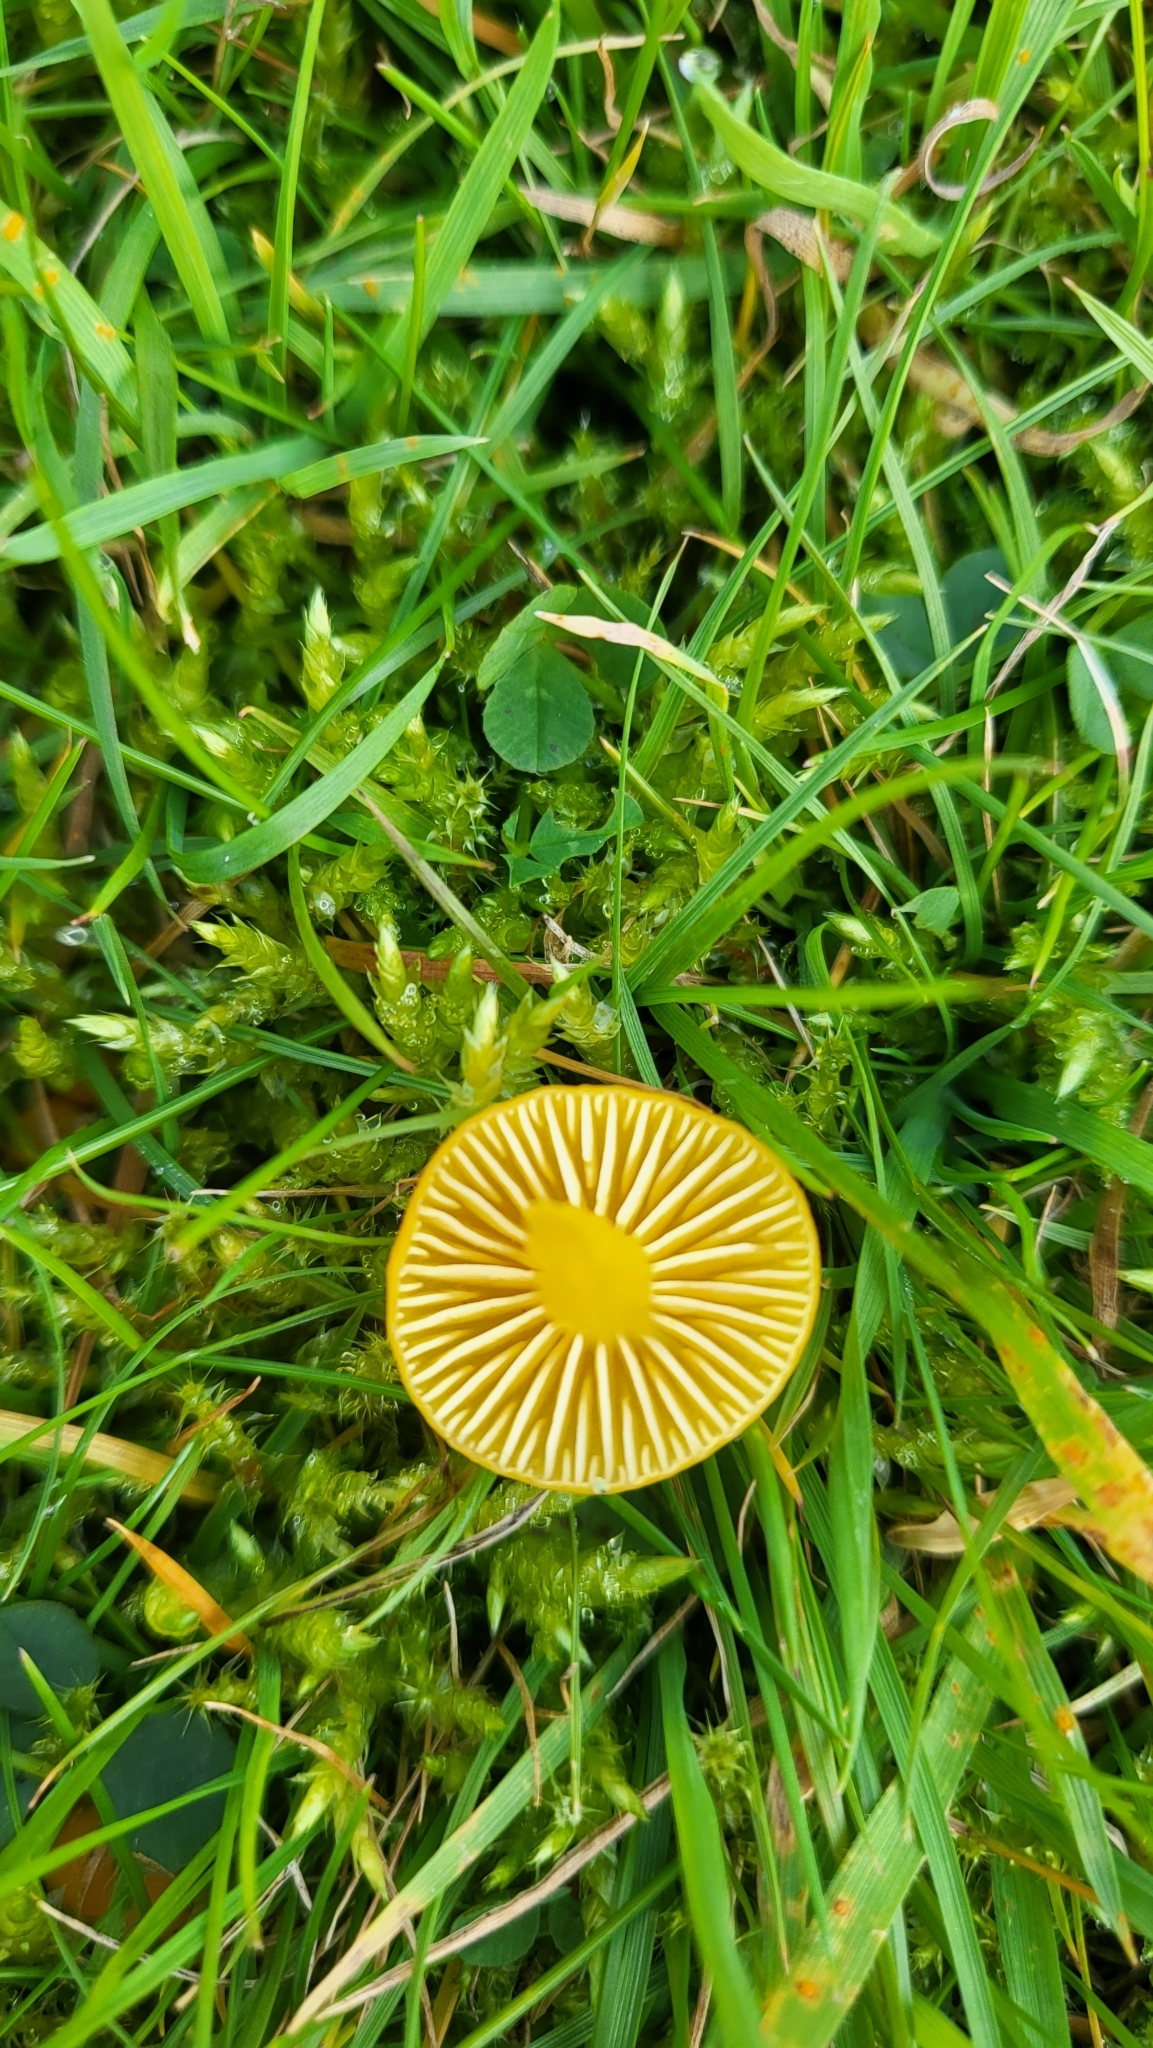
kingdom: Fungi
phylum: Basidiomycota
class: Agaricomycetes
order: Agaricales
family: Hygrophoraceae
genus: Hygrocybe
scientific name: Hygrocybe ceracea
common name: Butter waxcap
